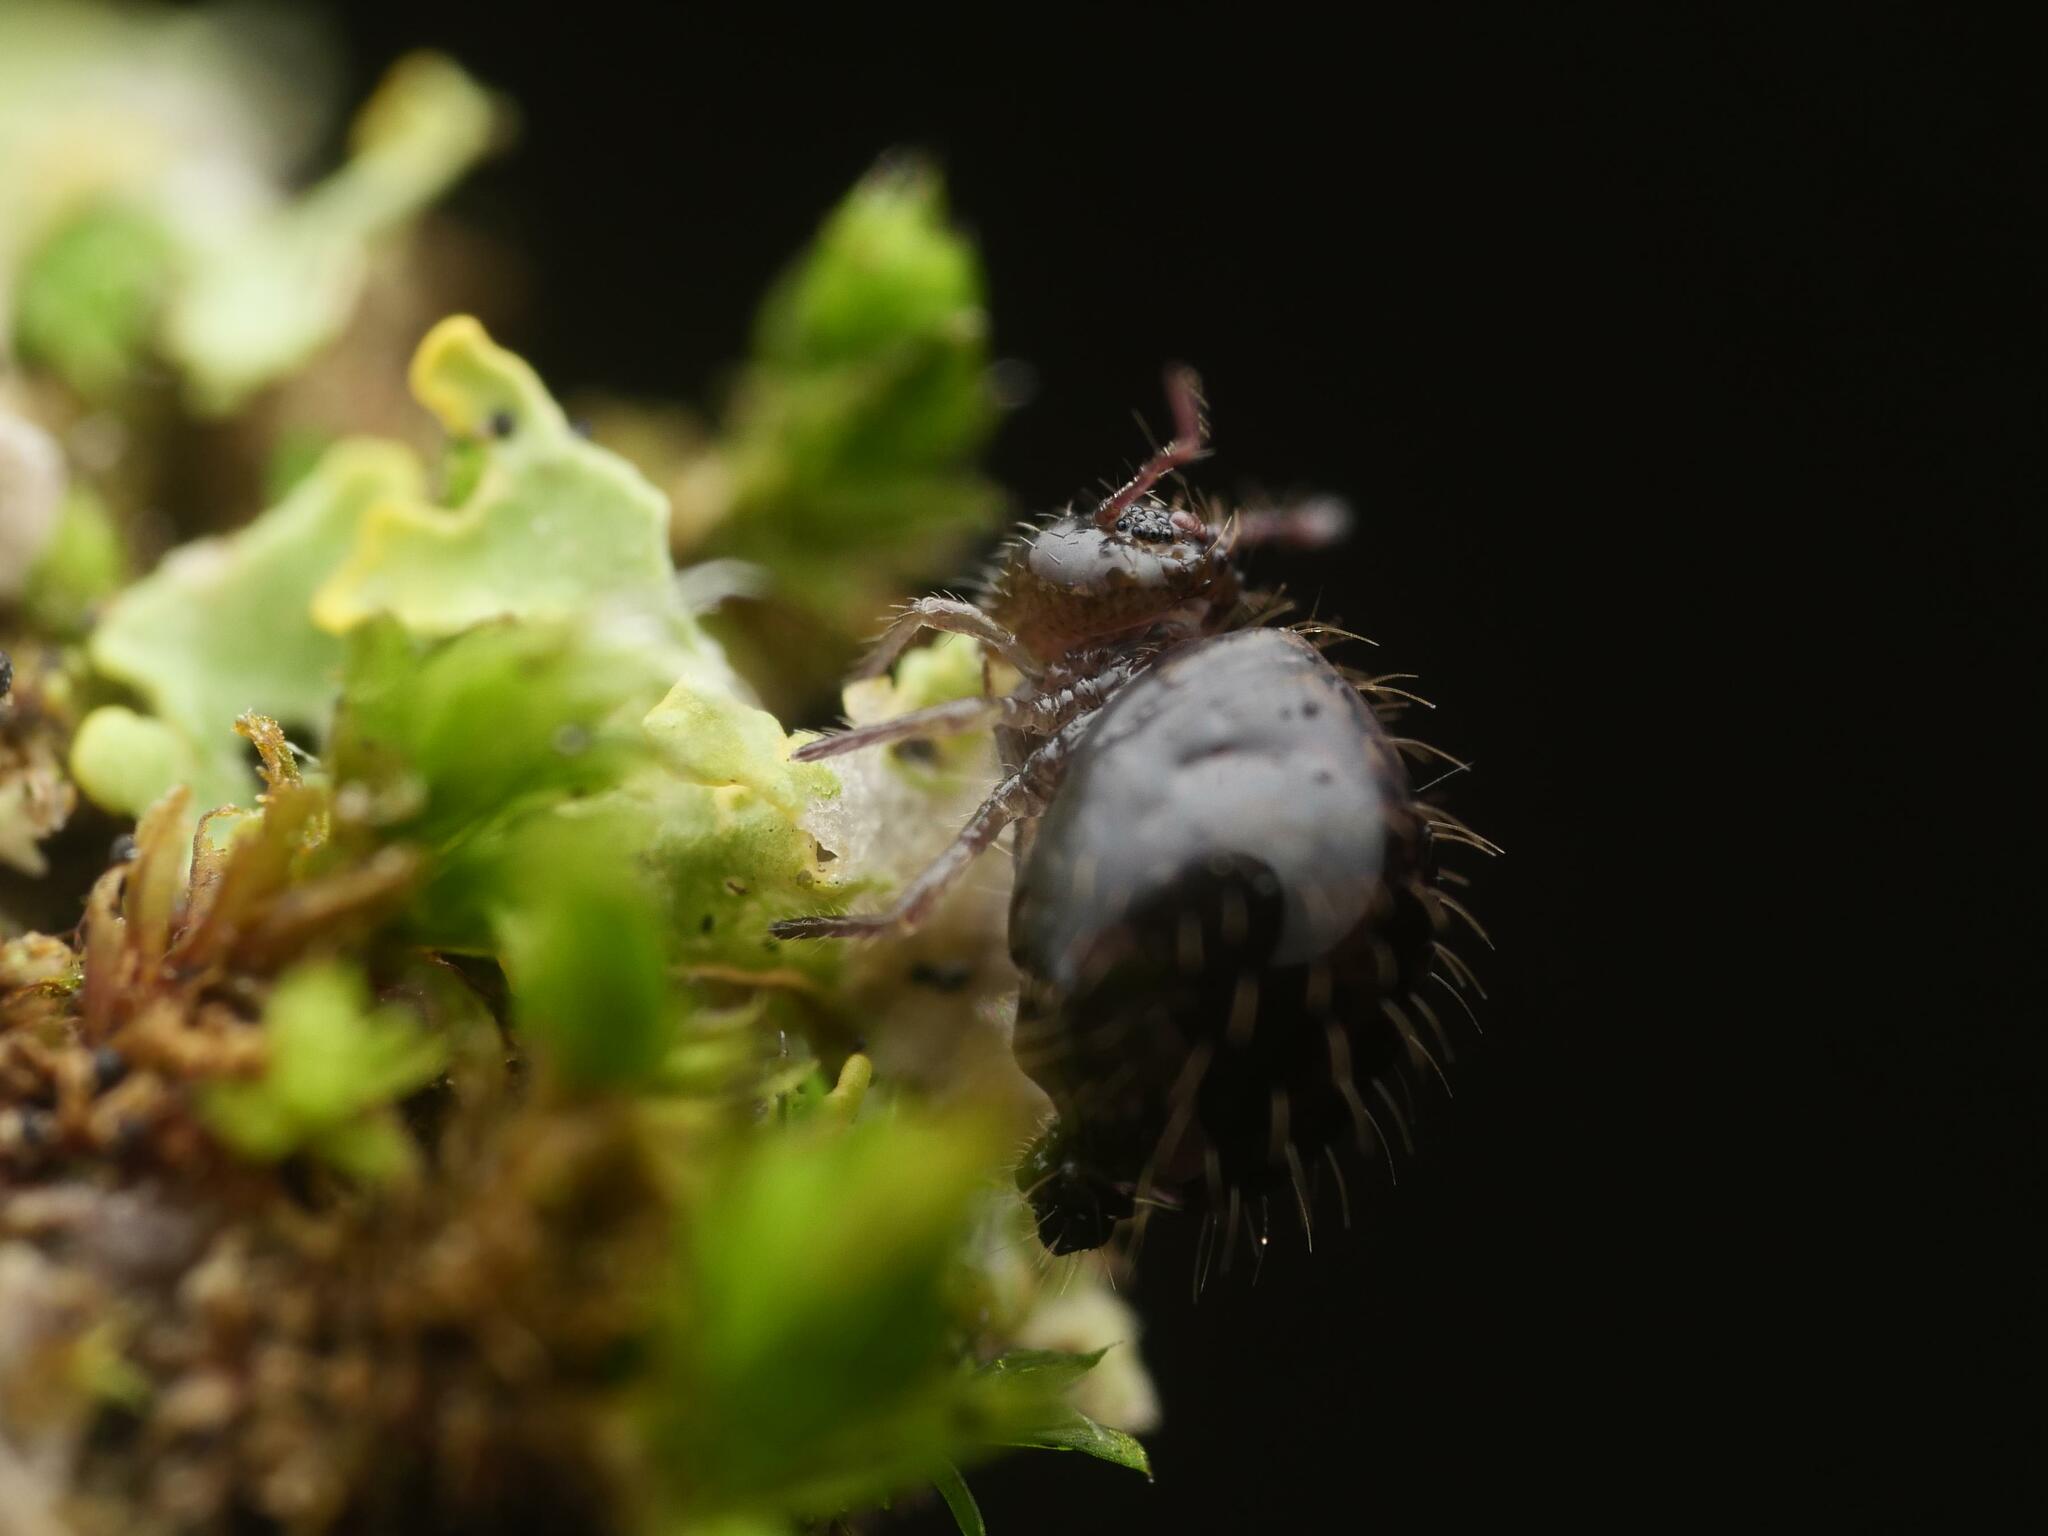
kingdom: Animalia
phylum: Arthropoda
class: Collembola
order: Symphypleona
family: Sminthuridae
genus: Allacma
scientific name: Allacma fusca
